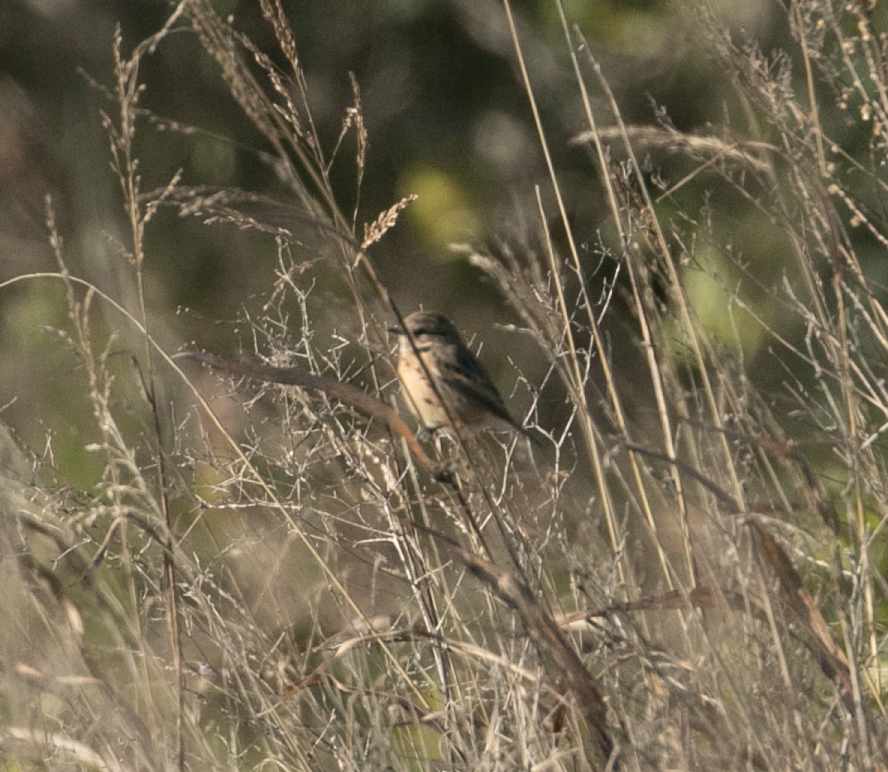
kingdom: Animalia
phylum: Chordata
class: Aves
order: Passeriformes
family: Muscicapidae
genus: Saxicola
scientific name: Saxicola rubicola
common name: European stonechat
